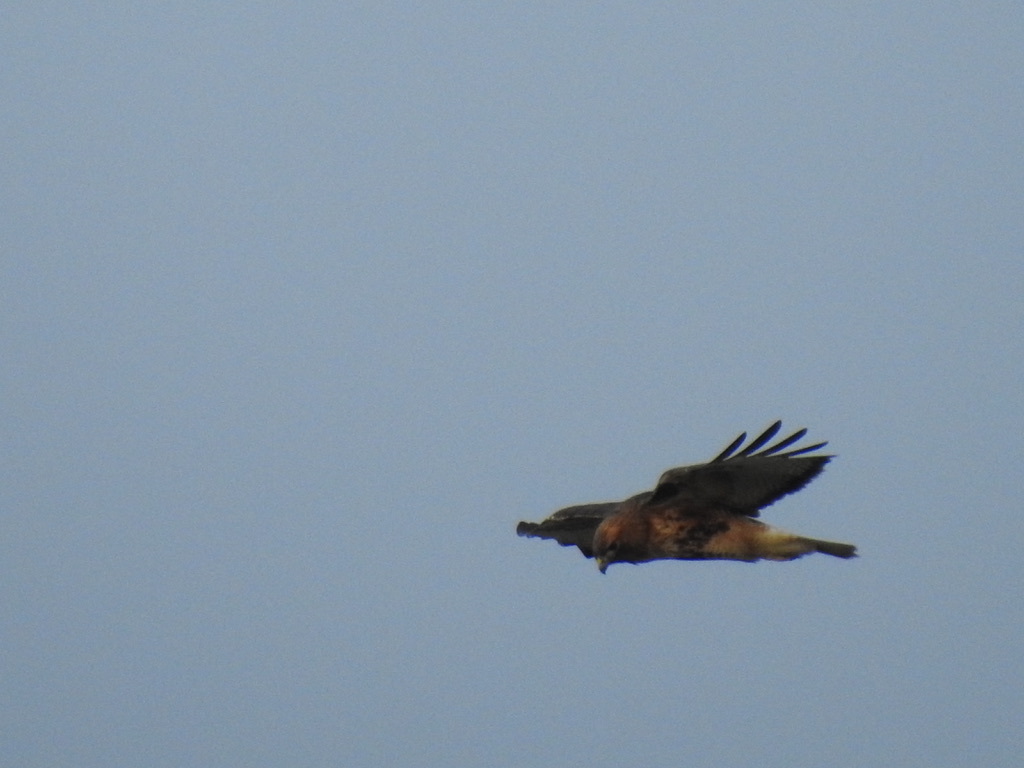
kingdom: Animalia
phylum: Chordata
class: Aves
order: Accipitriformes
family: Accipitridae
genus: Buteo
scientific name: Buteo jamaicensis
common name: Red-tailed hawk
